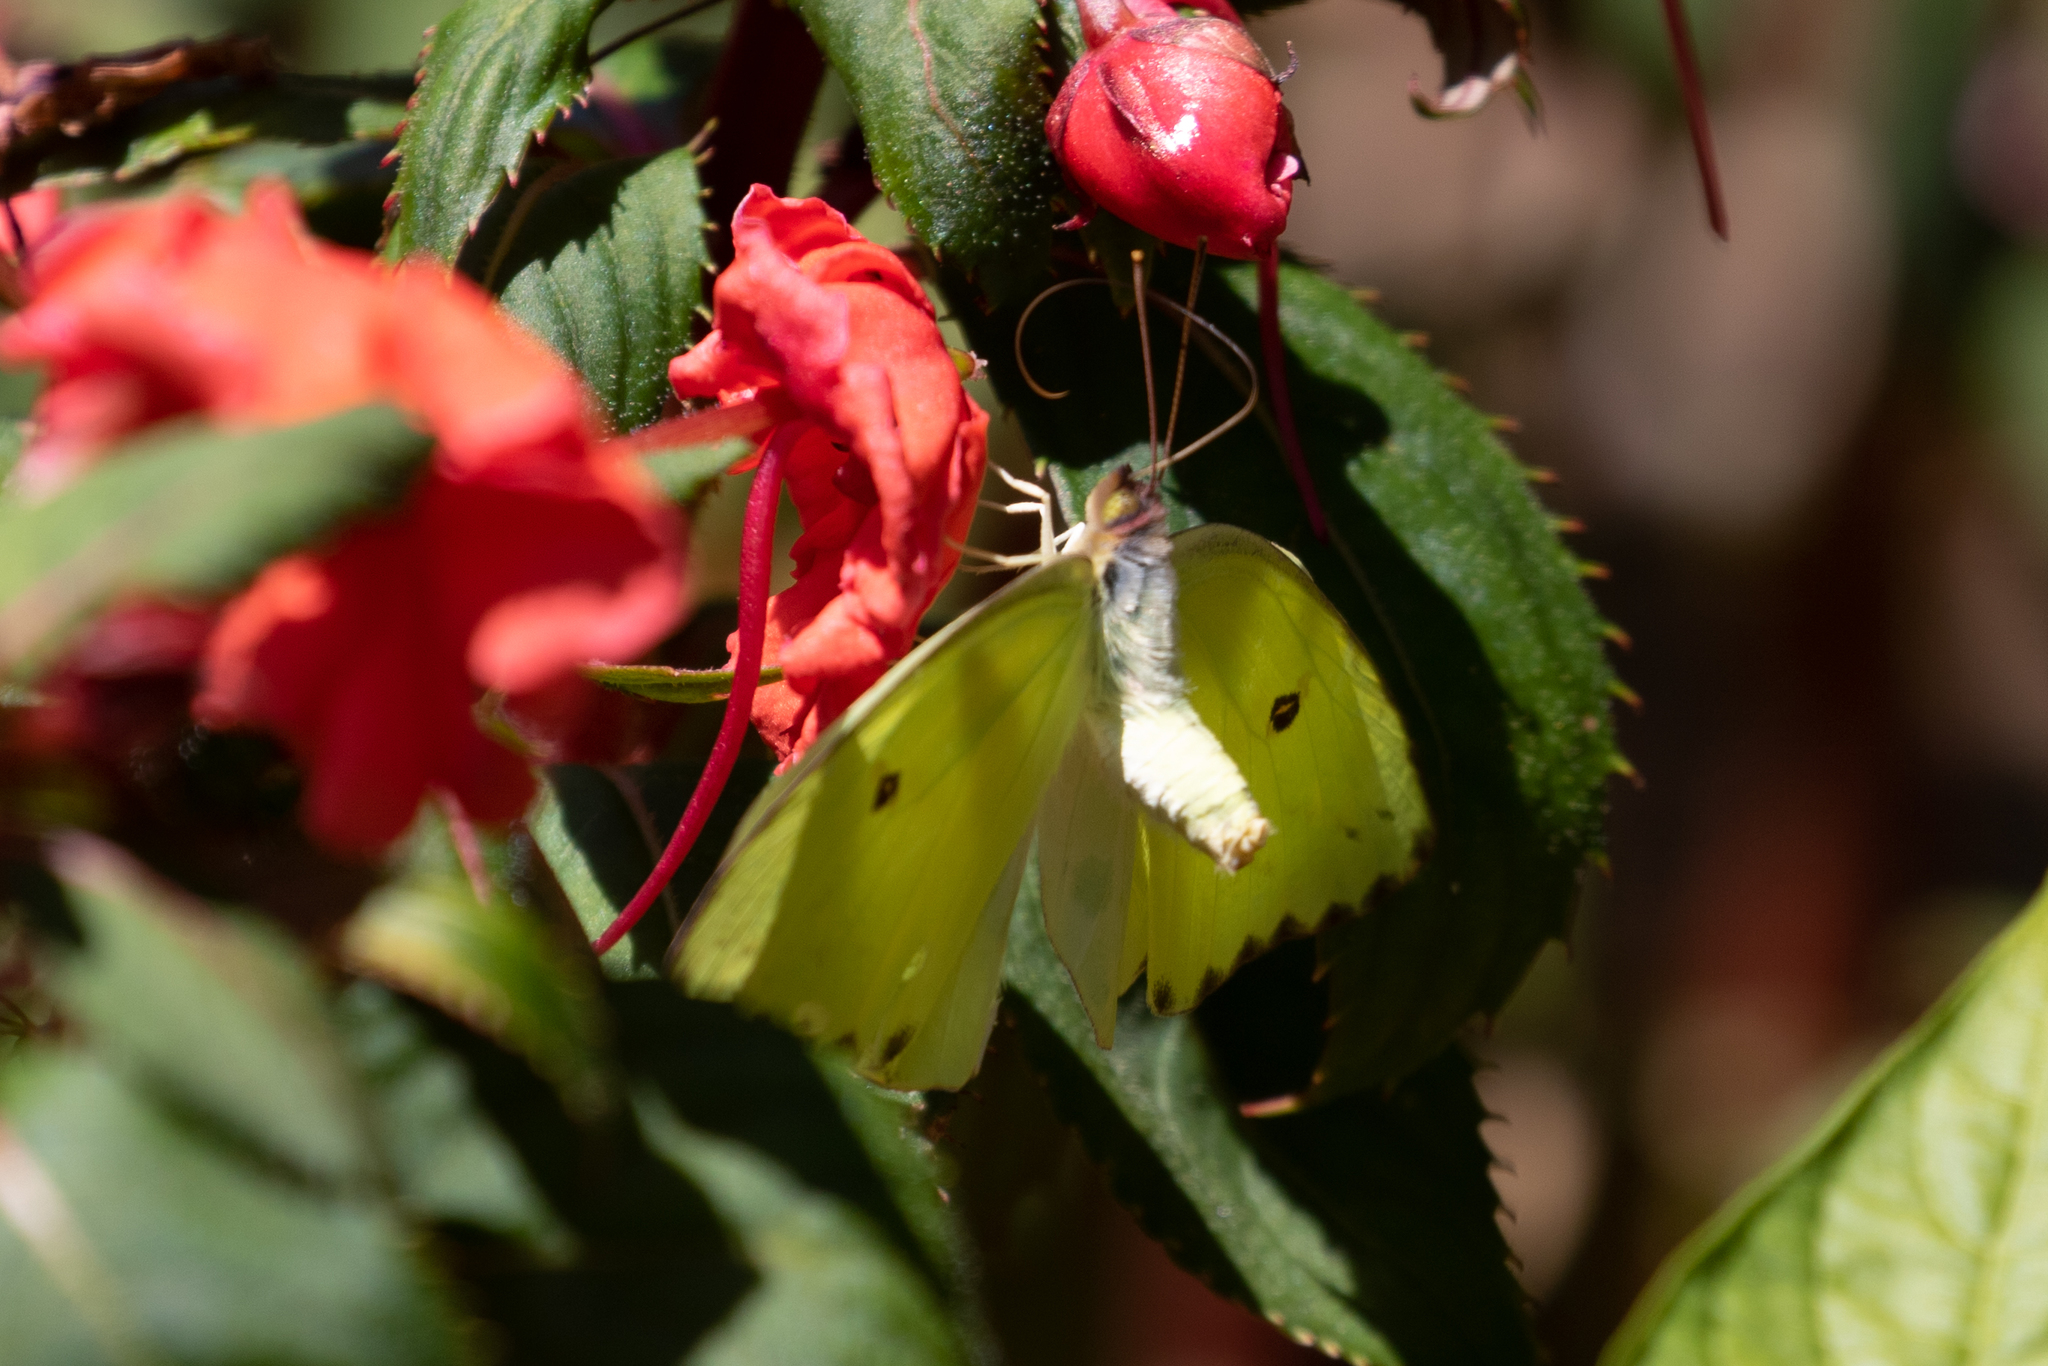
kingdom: Animalia
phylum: Arthropoda
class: Insecta
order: Lepidoptera
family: Pieridae
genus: Phoebis
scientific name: Phoebis sennae
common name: Cloudless sulphur
